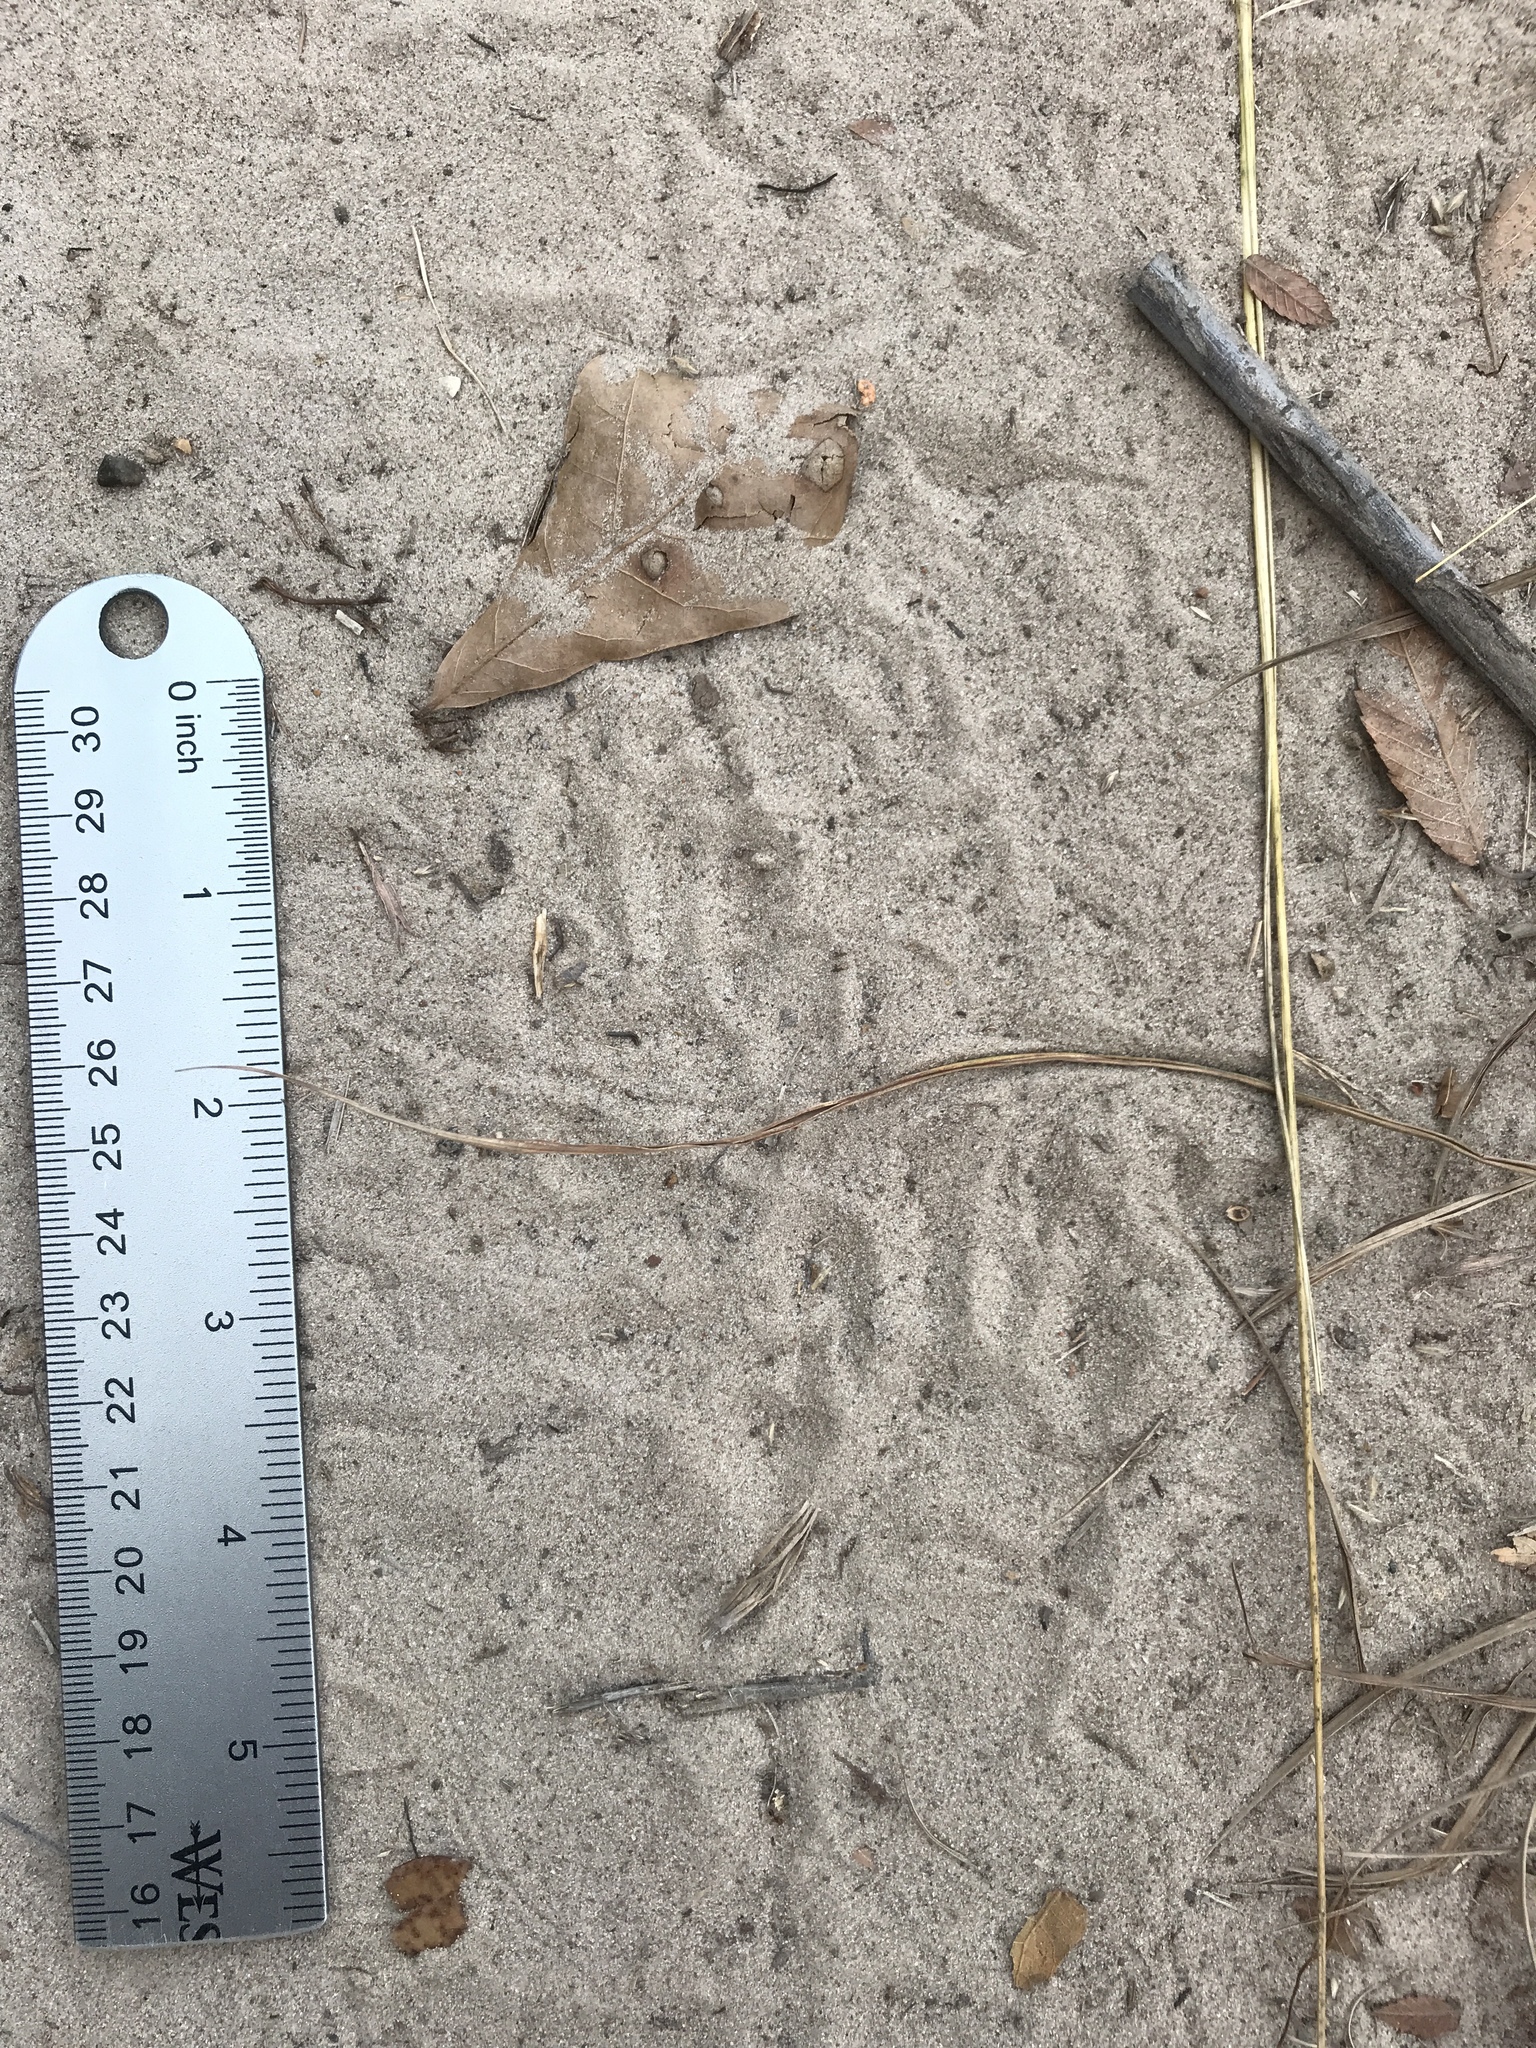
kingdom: Animalia
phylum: Chordata
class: Mammalia
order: Carnivora
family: Procyonidae
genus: Procyon
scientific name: Procyon lotor
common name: Raccoon
